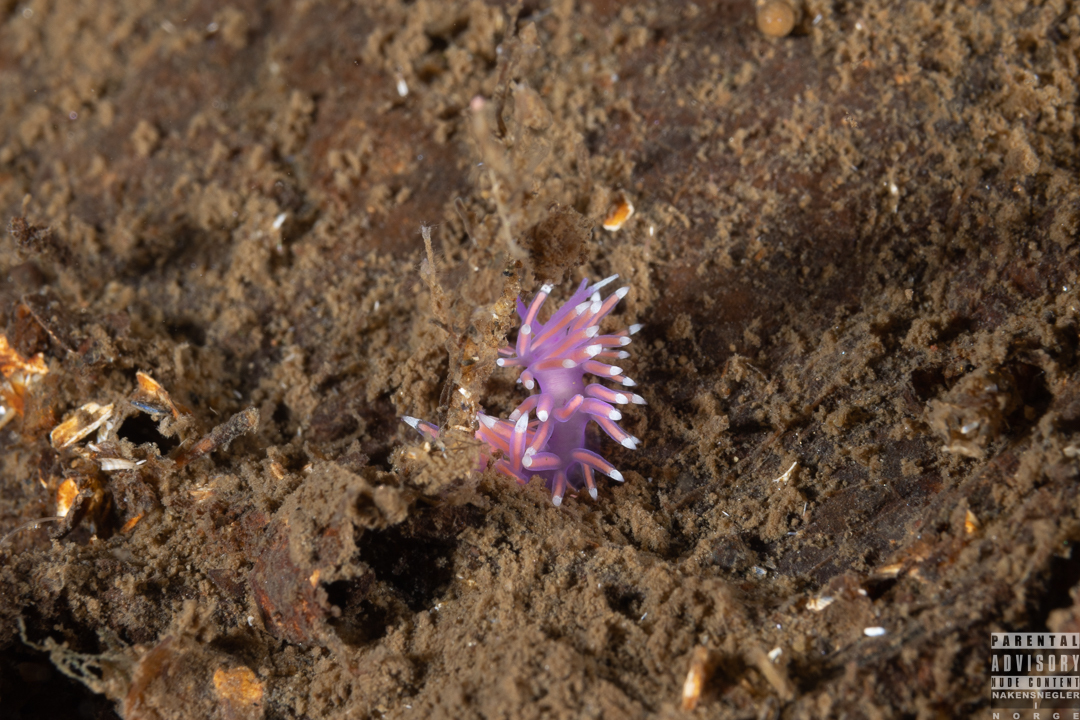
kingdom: Animalia
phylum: Mollusca
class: Gastropoda
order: Nudibranchia
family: Flabellinidae
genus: Edmundsella
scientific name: Edmundsella pedata
